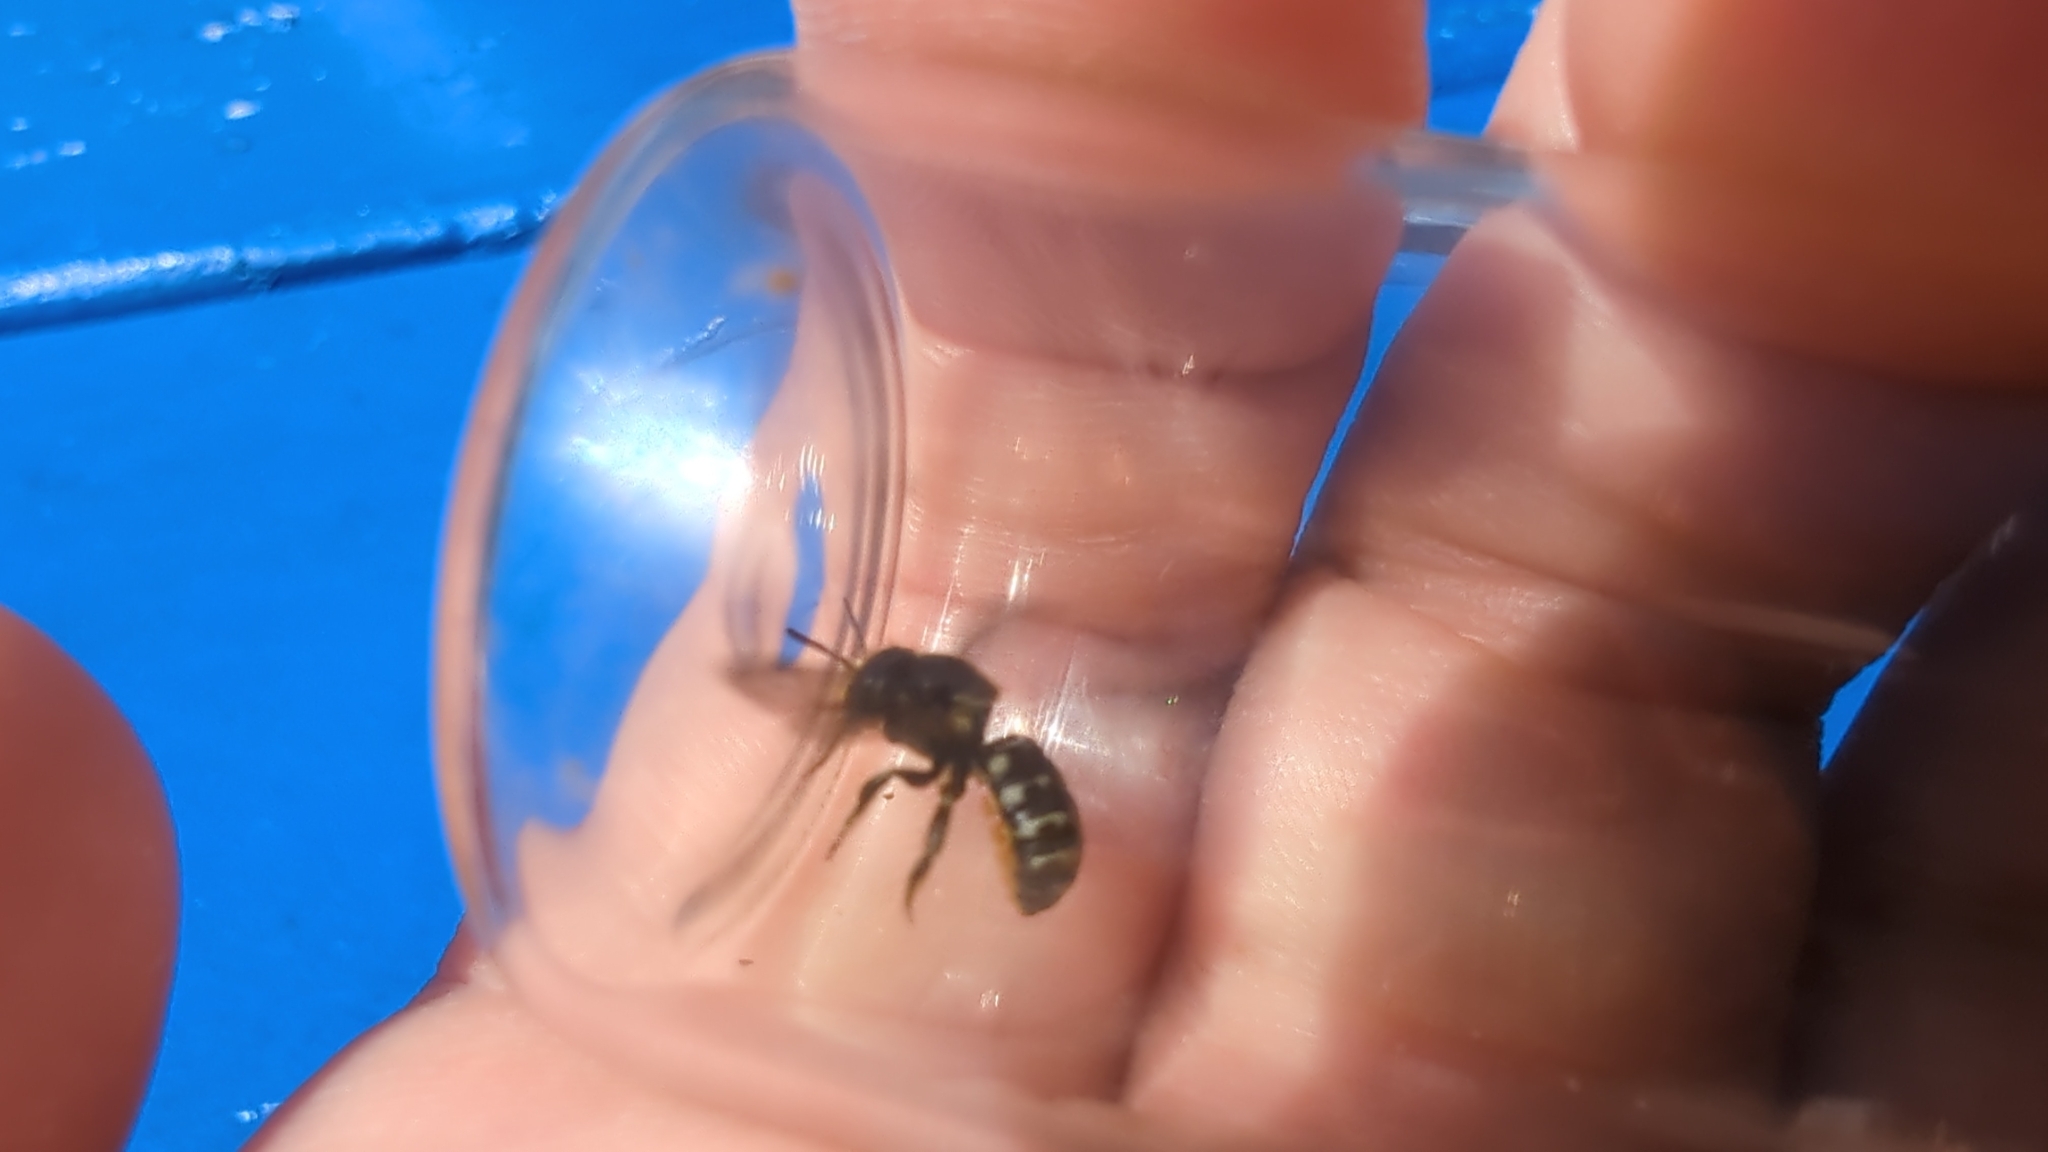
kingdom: Animalia
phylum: Arthropoda
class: Insecta
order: Hymenoptera
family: Megachilidae
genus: Dianthidium
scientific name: Dianthidium subparvum
